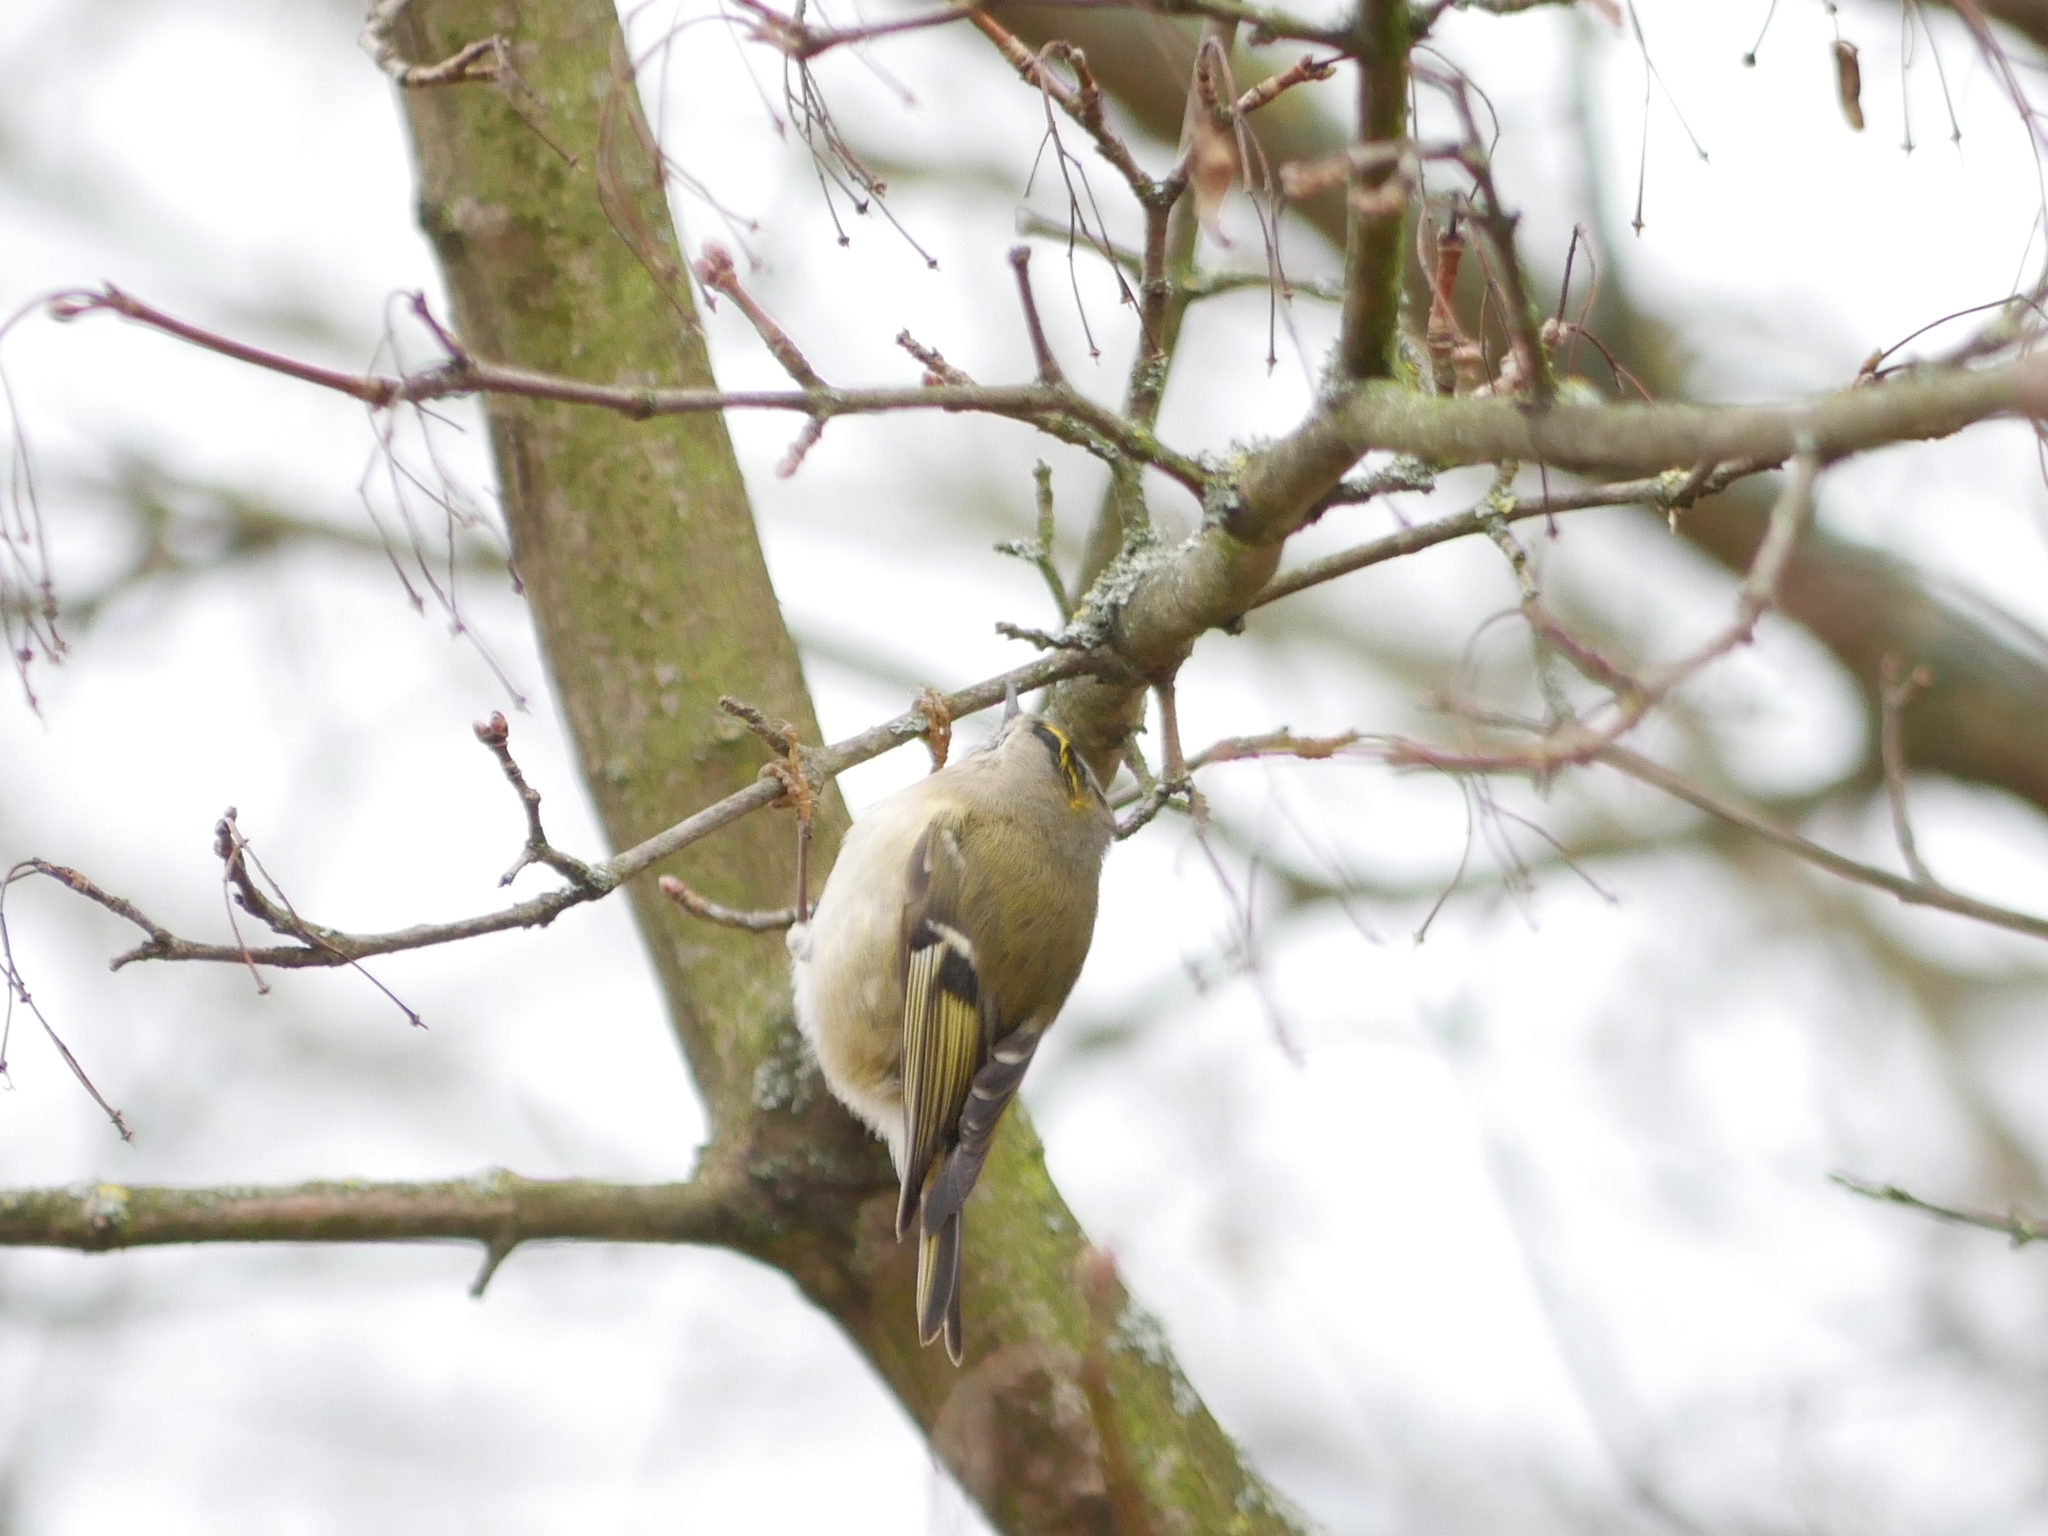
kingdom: Animalia
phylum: Chordata
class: Aves
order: Passeriformes
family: Regulidae
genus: Regulus
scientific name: Regulus regulus
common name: Goldcrest
